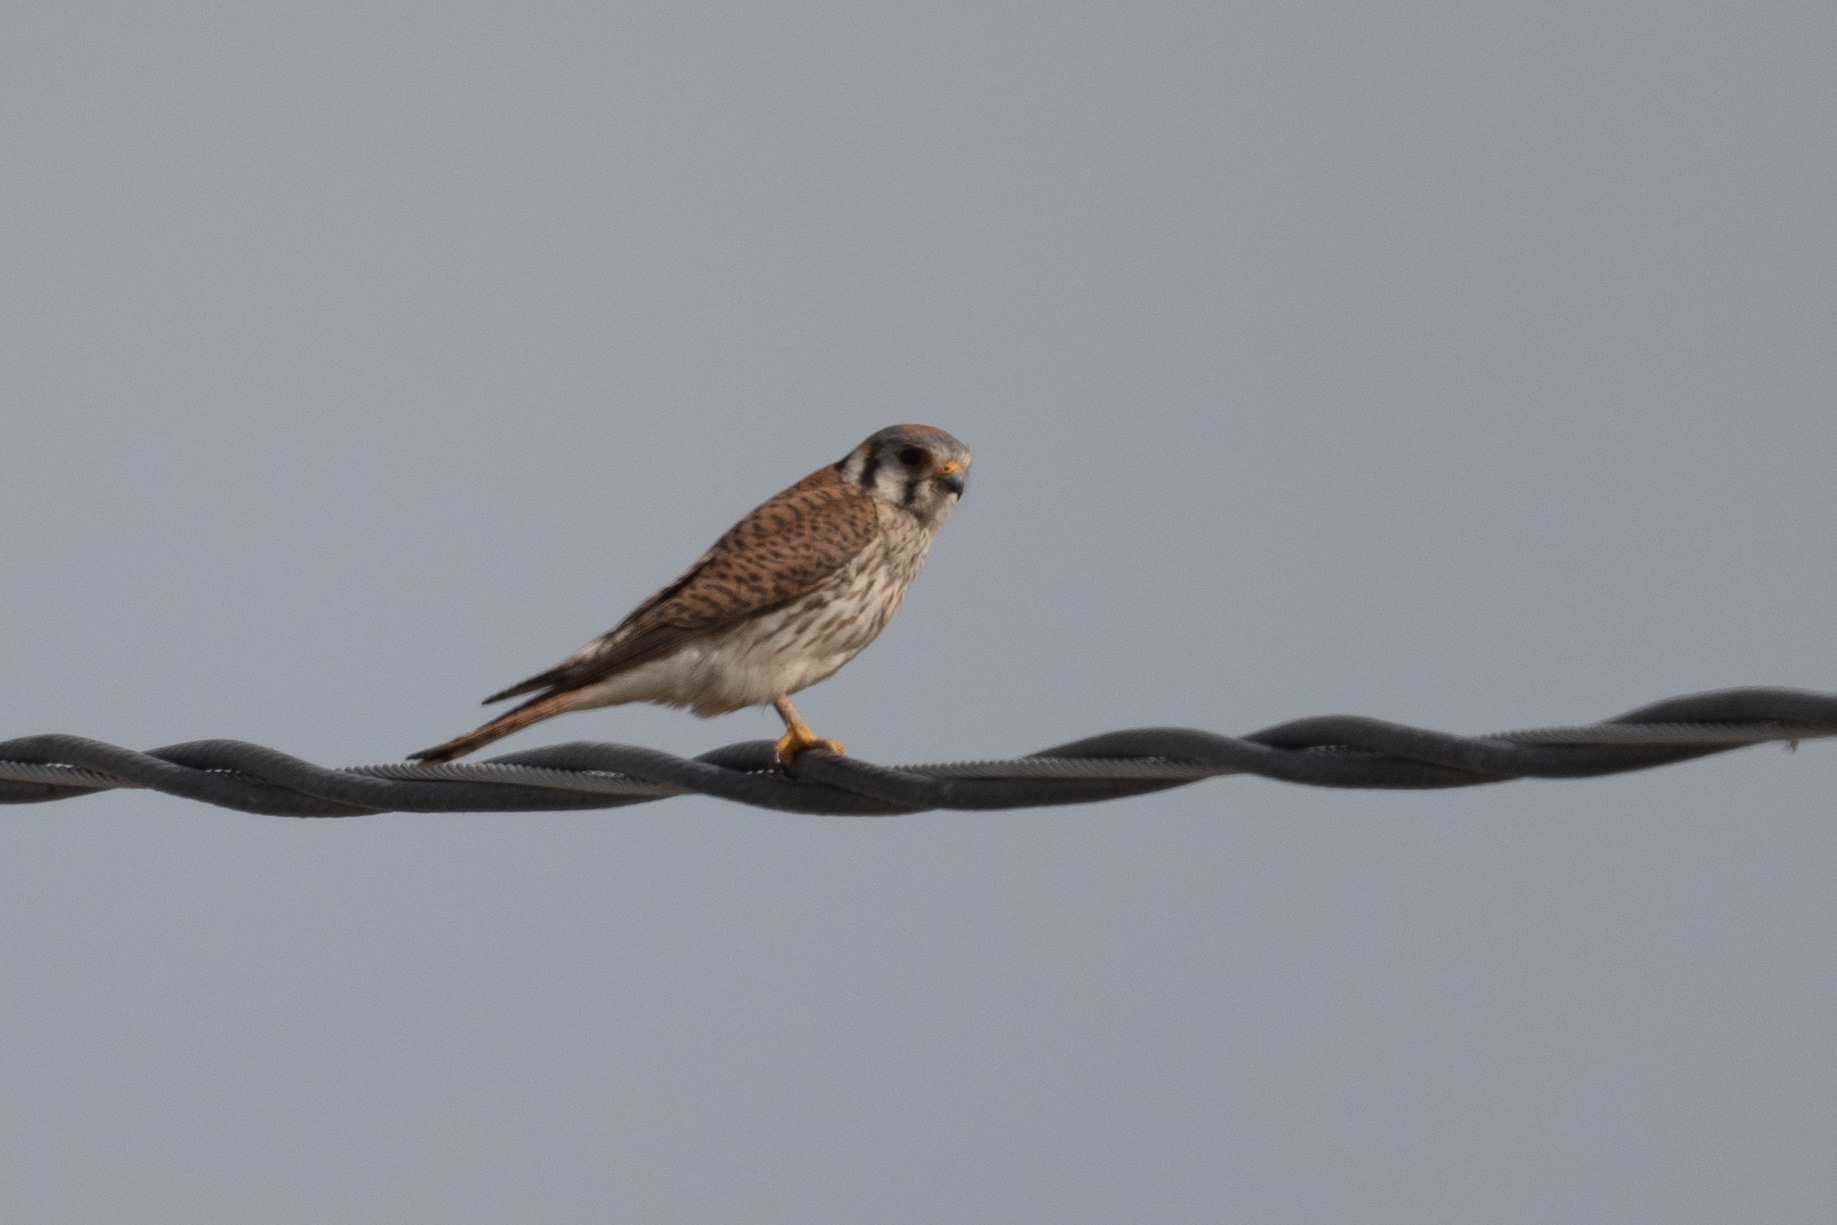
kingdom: Animalia
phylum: Chordata
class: Aves
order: Falconiformes
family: Falconidae
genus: Falco
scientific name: Falco sparverius
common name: American kestrel
